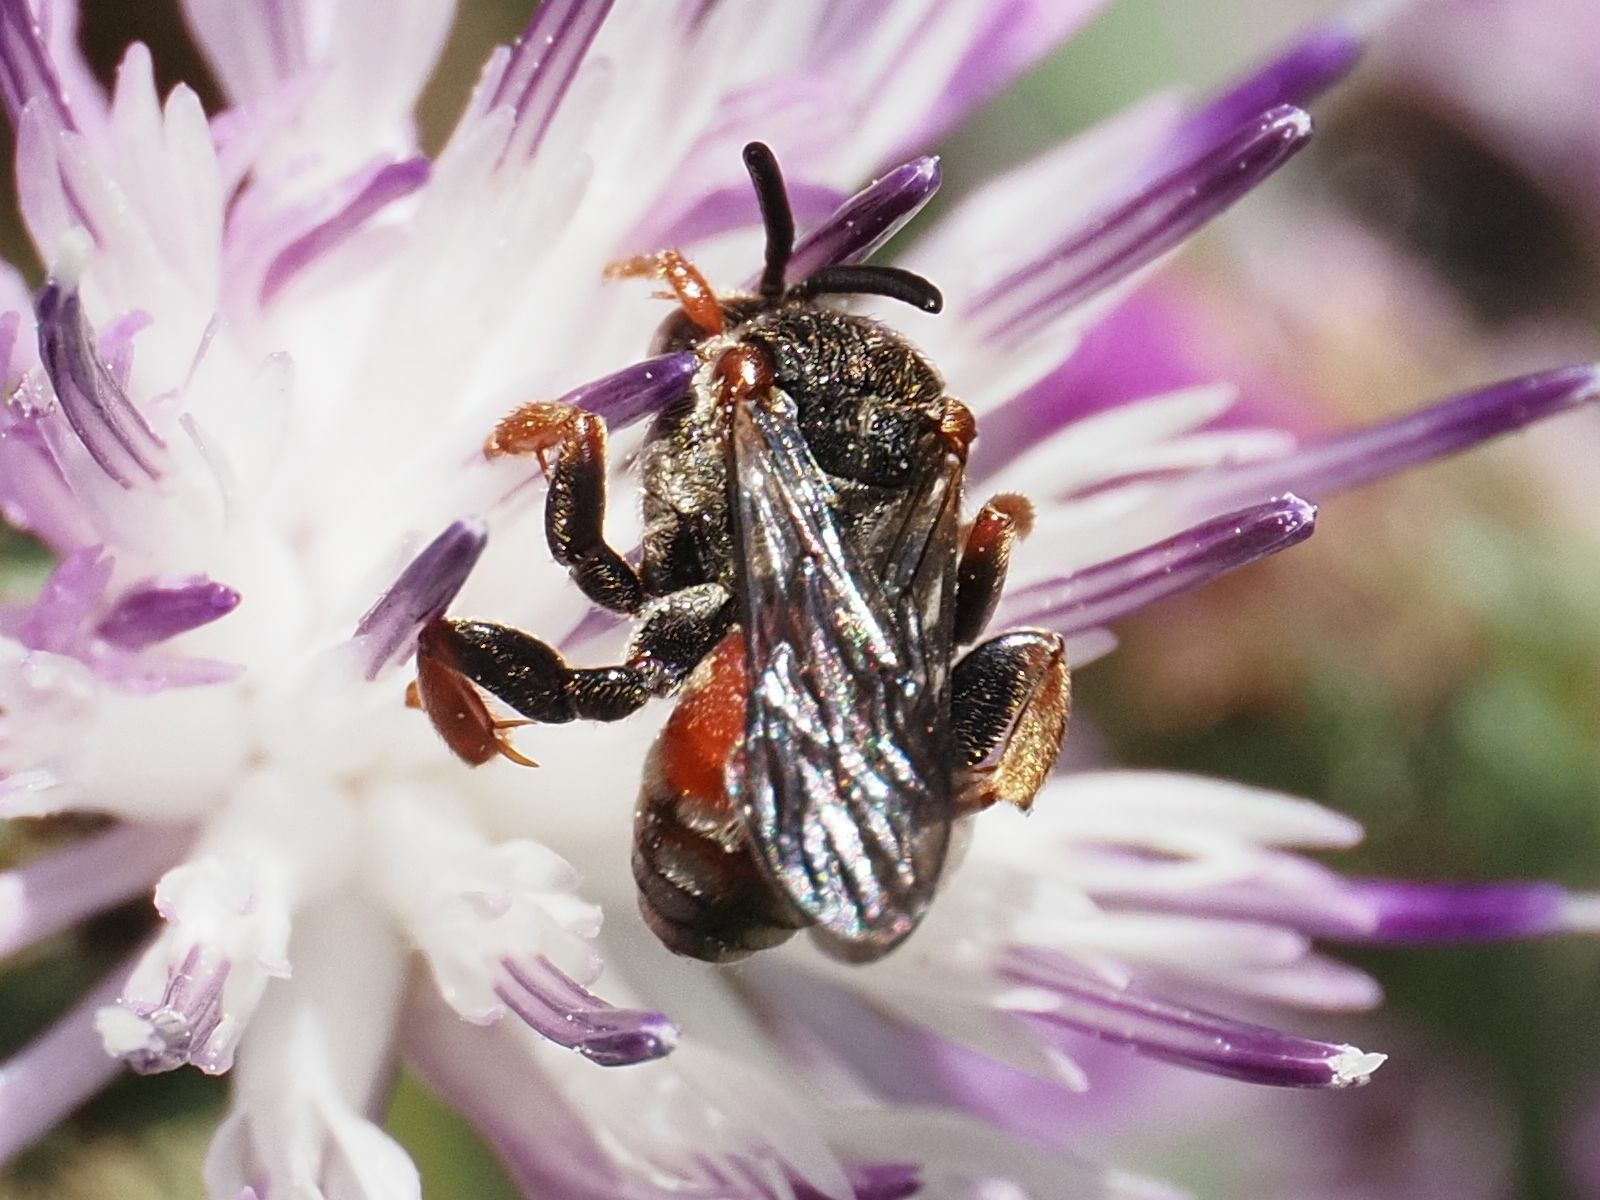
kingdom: Animalia
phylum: Arthropoda
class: Insecta
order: Hymenoptera
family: Apidae
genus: Pasites
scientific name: Pasites maculatus
